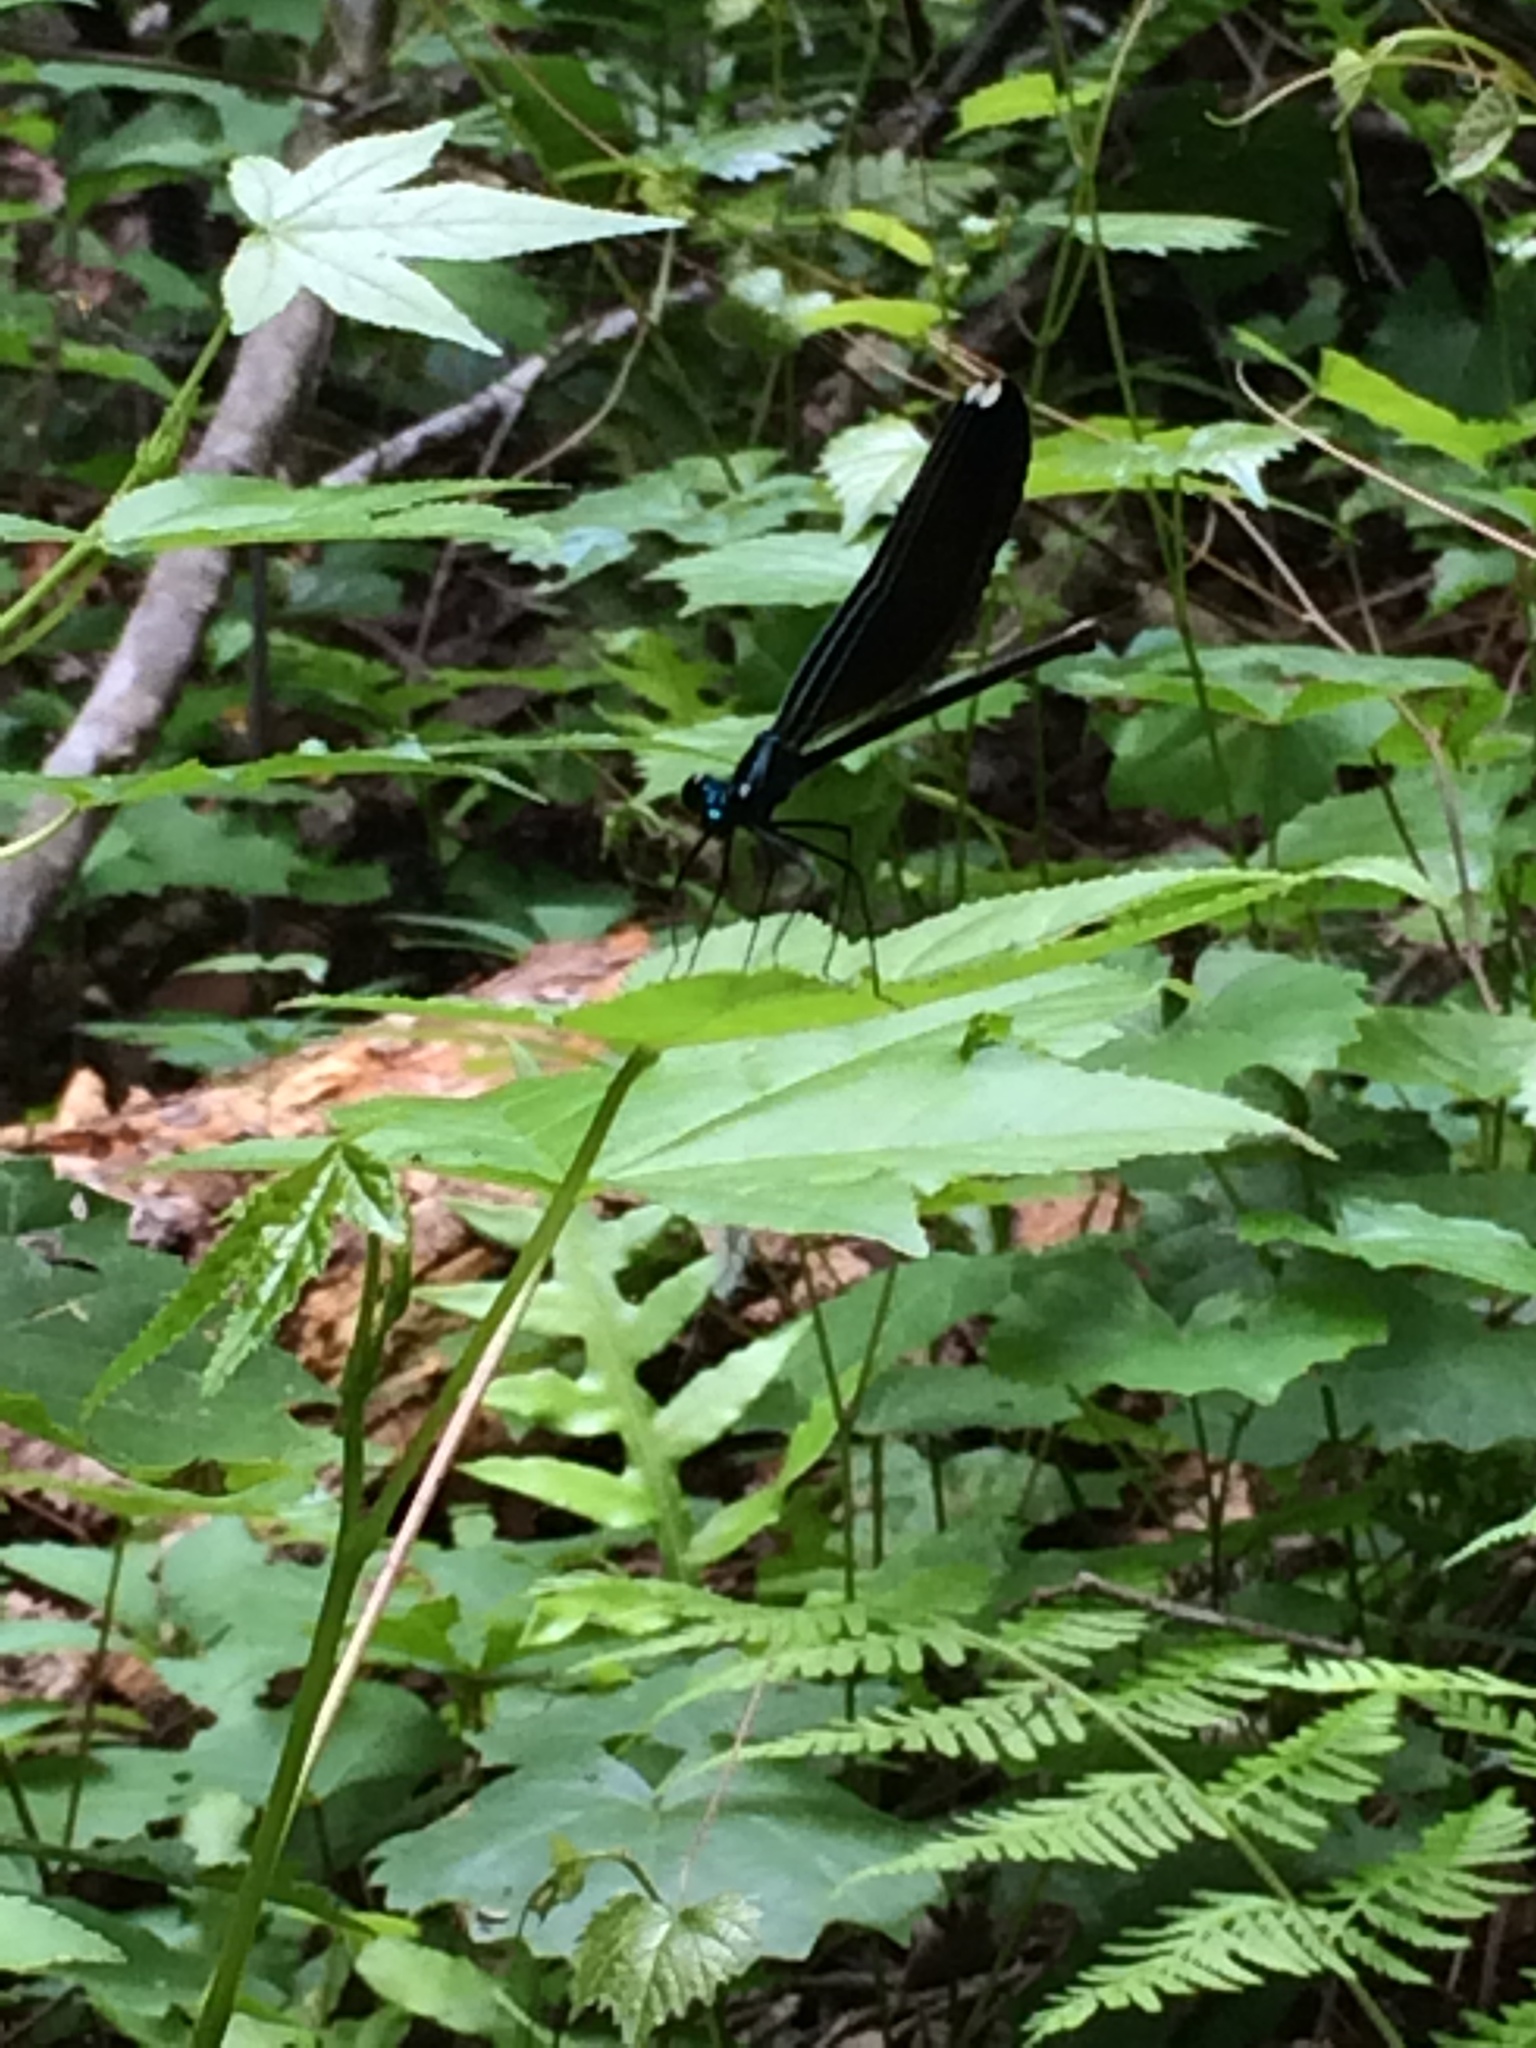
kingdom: Animalia
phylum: Arthropoda
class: Insecta
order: Odonata
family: Calopterygidae
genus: Calopteryx
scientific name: Calopteryx maculata
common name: Ebony jewelwing
